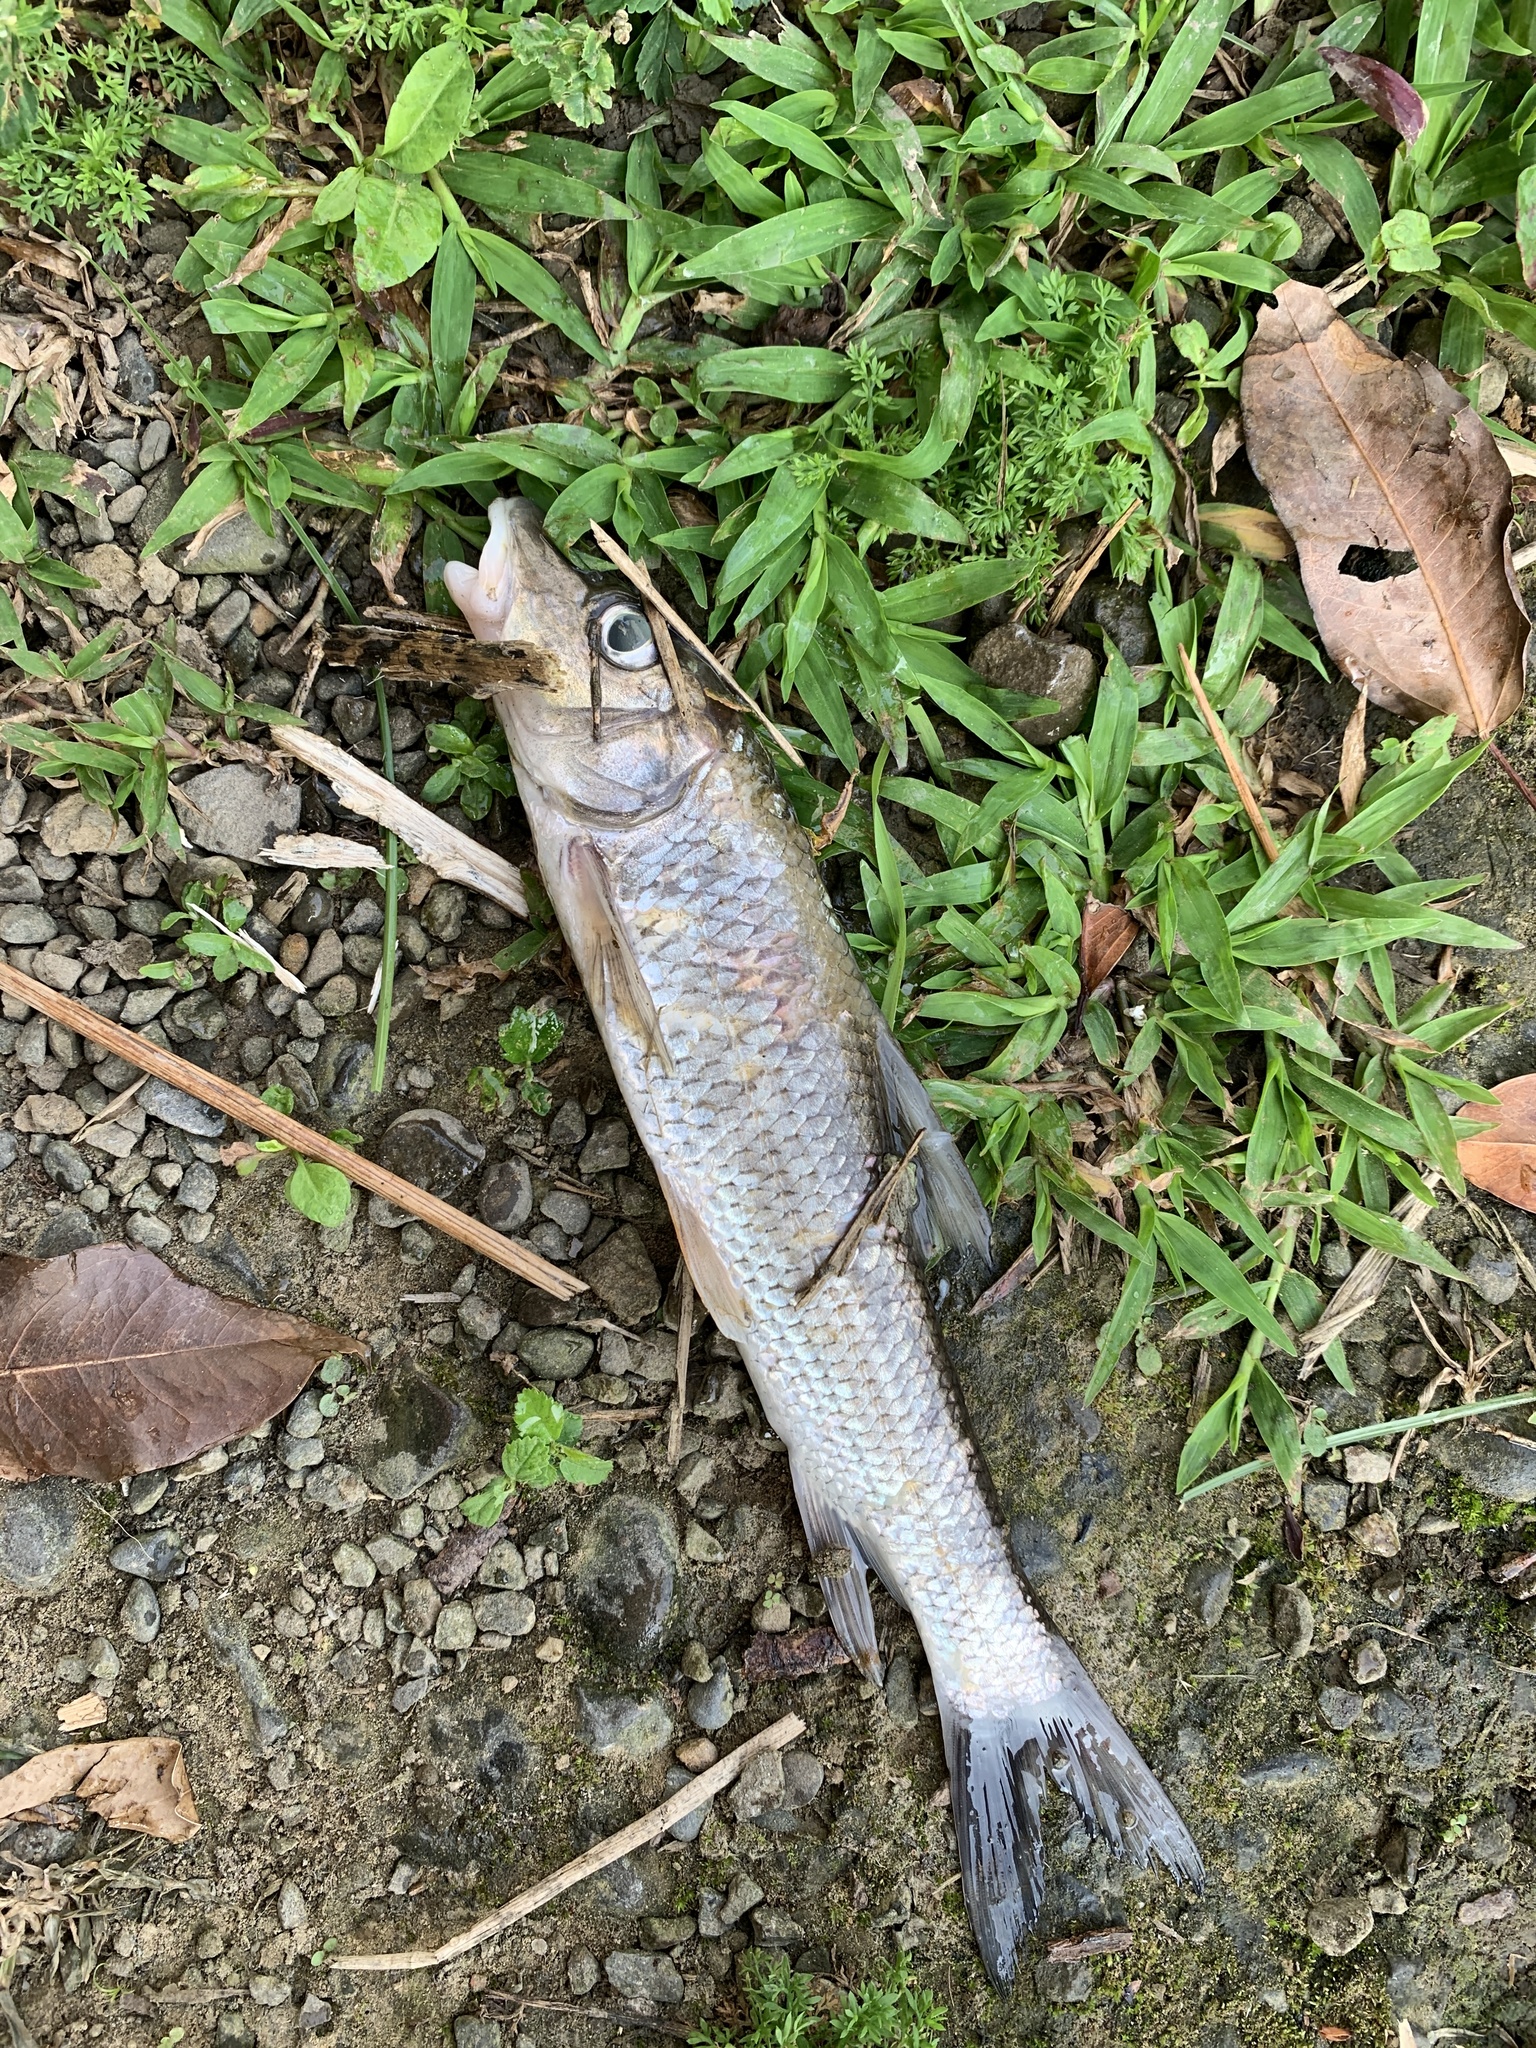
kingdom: Animalia
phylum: Chordata
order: Cypriniformes
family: Cyprinidae
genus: Hemibarbus
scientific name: Hemibarbus labeo
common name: Amur barbel
